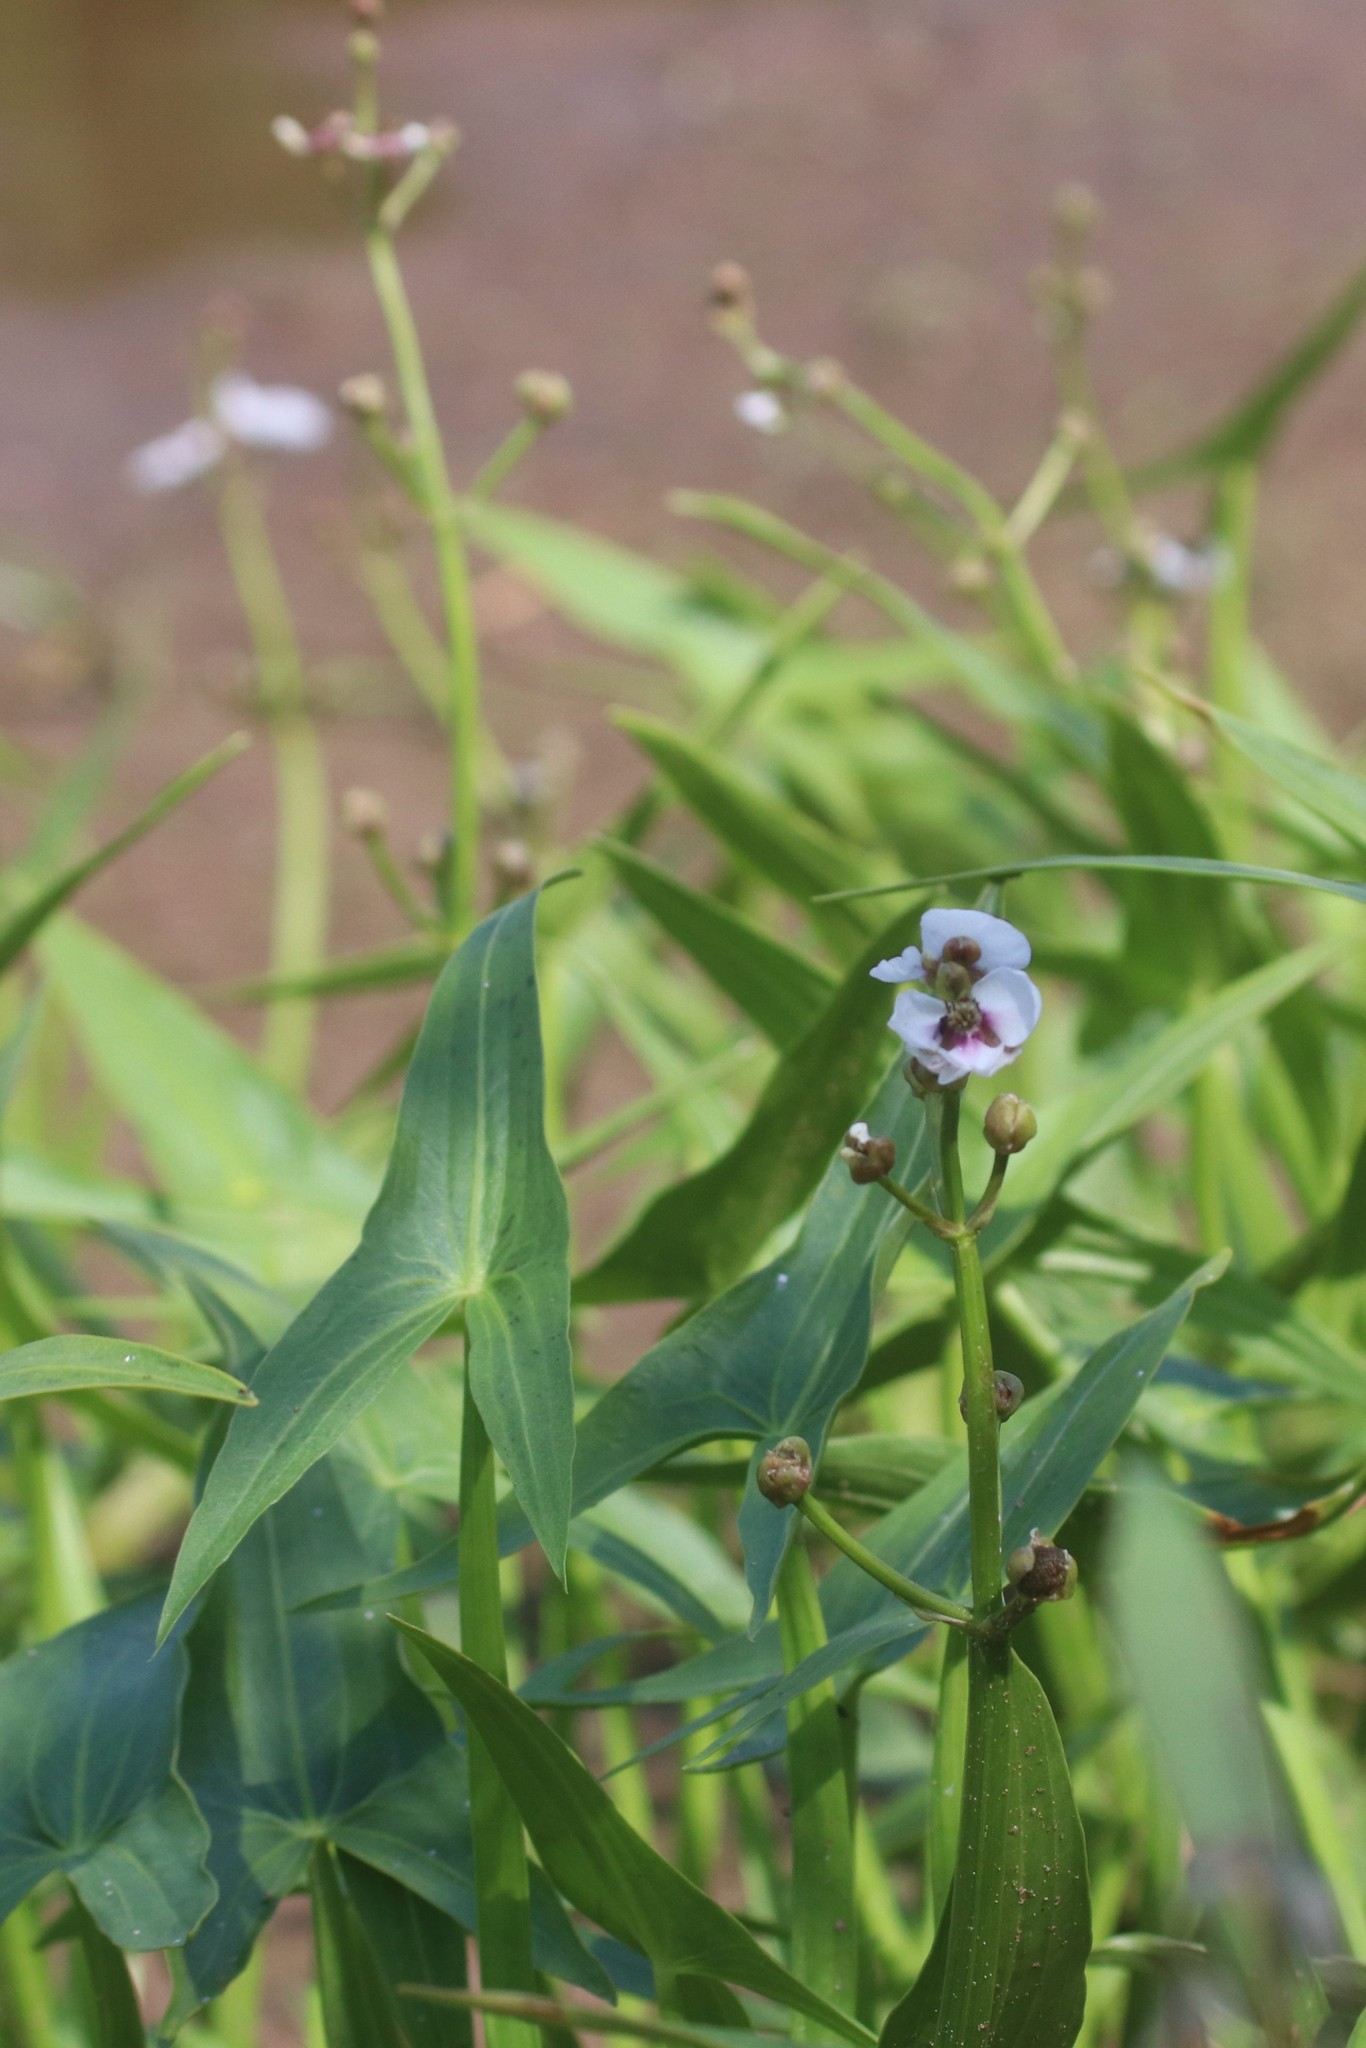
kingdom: Plantae
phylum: Tracheophyta
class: Liliopsida
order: Alismatales
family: Alismataceae
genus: Sagittaria
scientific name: Sagittaria sagittifolia
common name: Arrowhead
